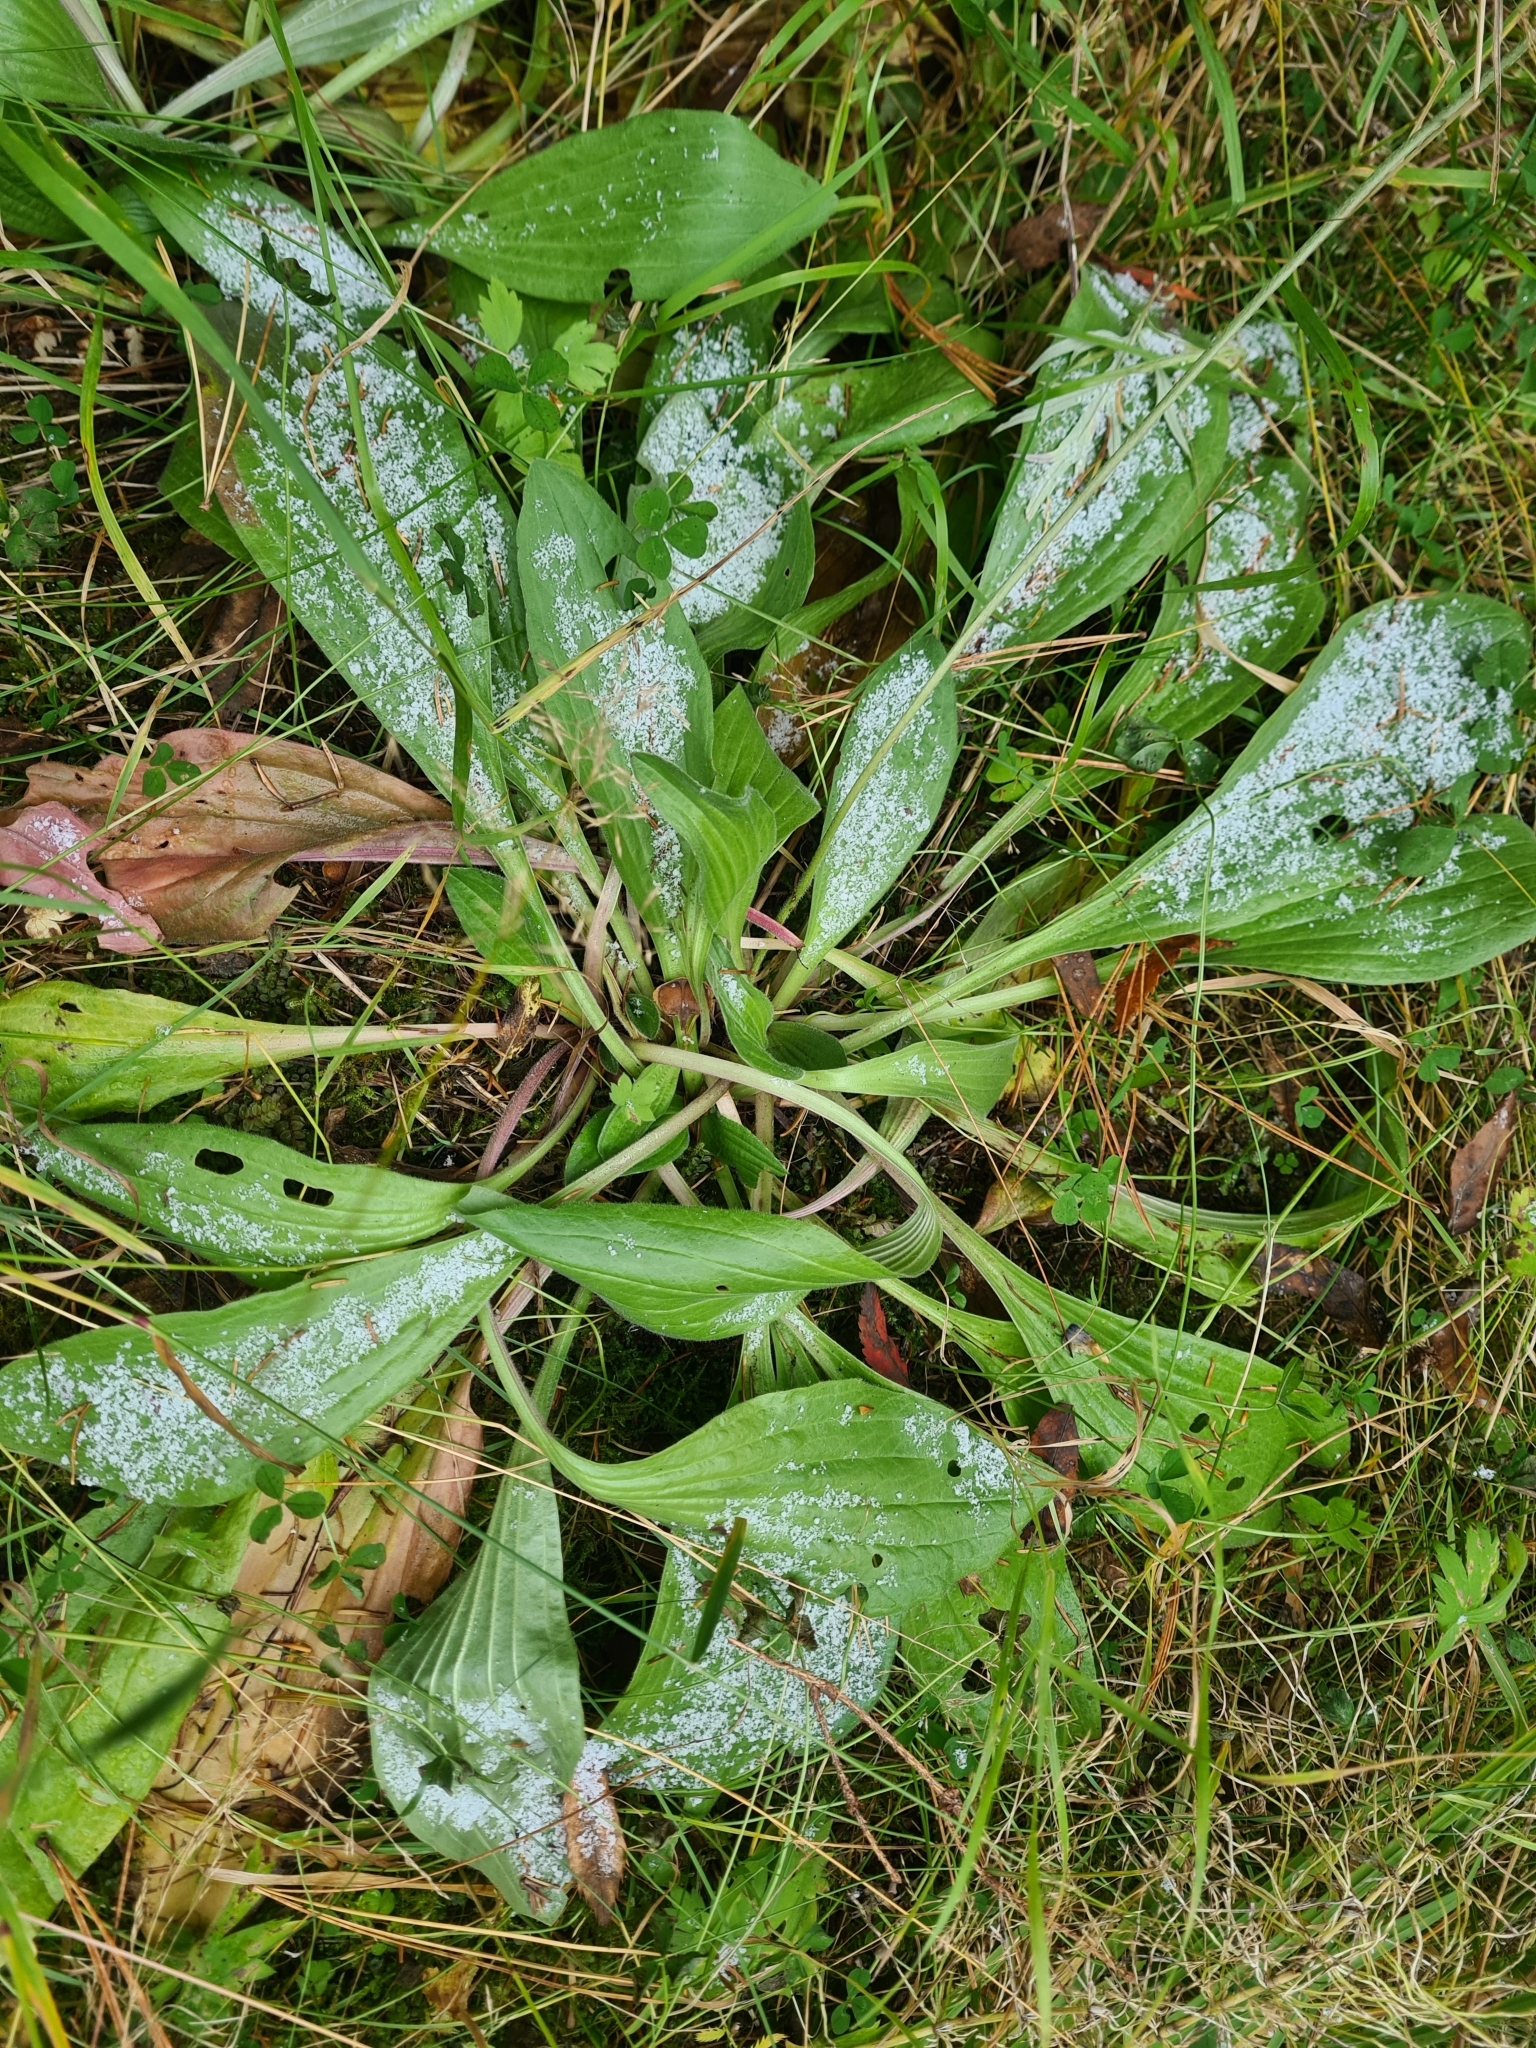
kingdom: Plantae
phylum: Tracheophyta
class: Magnoliopsida
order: Lamiales
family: Plantaginaceae
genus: Plantago
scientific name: Plantago urvillei
